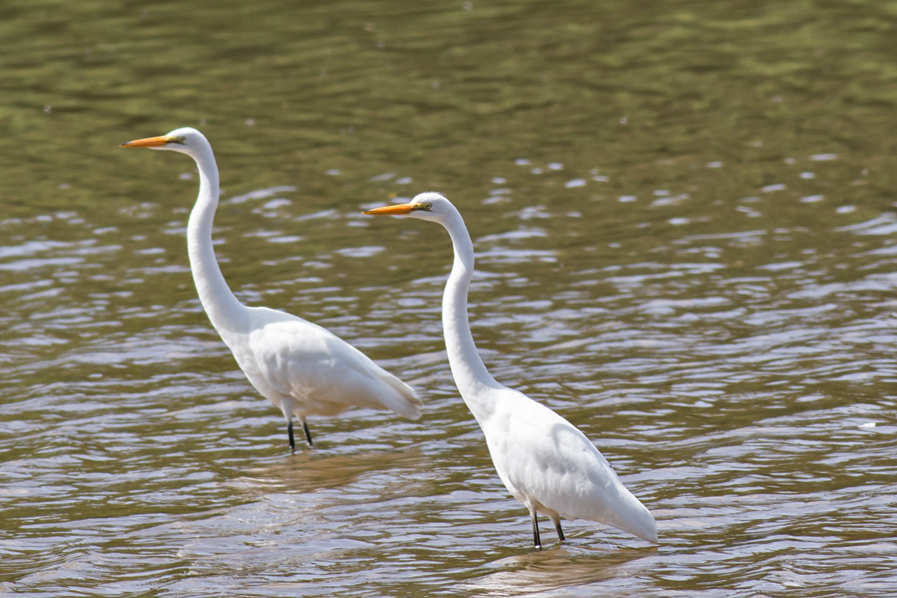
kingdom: Animalia
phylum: Chordata
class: Aves
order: Pelecaniformes
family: Ardeidae
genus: Ardea
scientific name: Ardea alba
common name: Great egret
